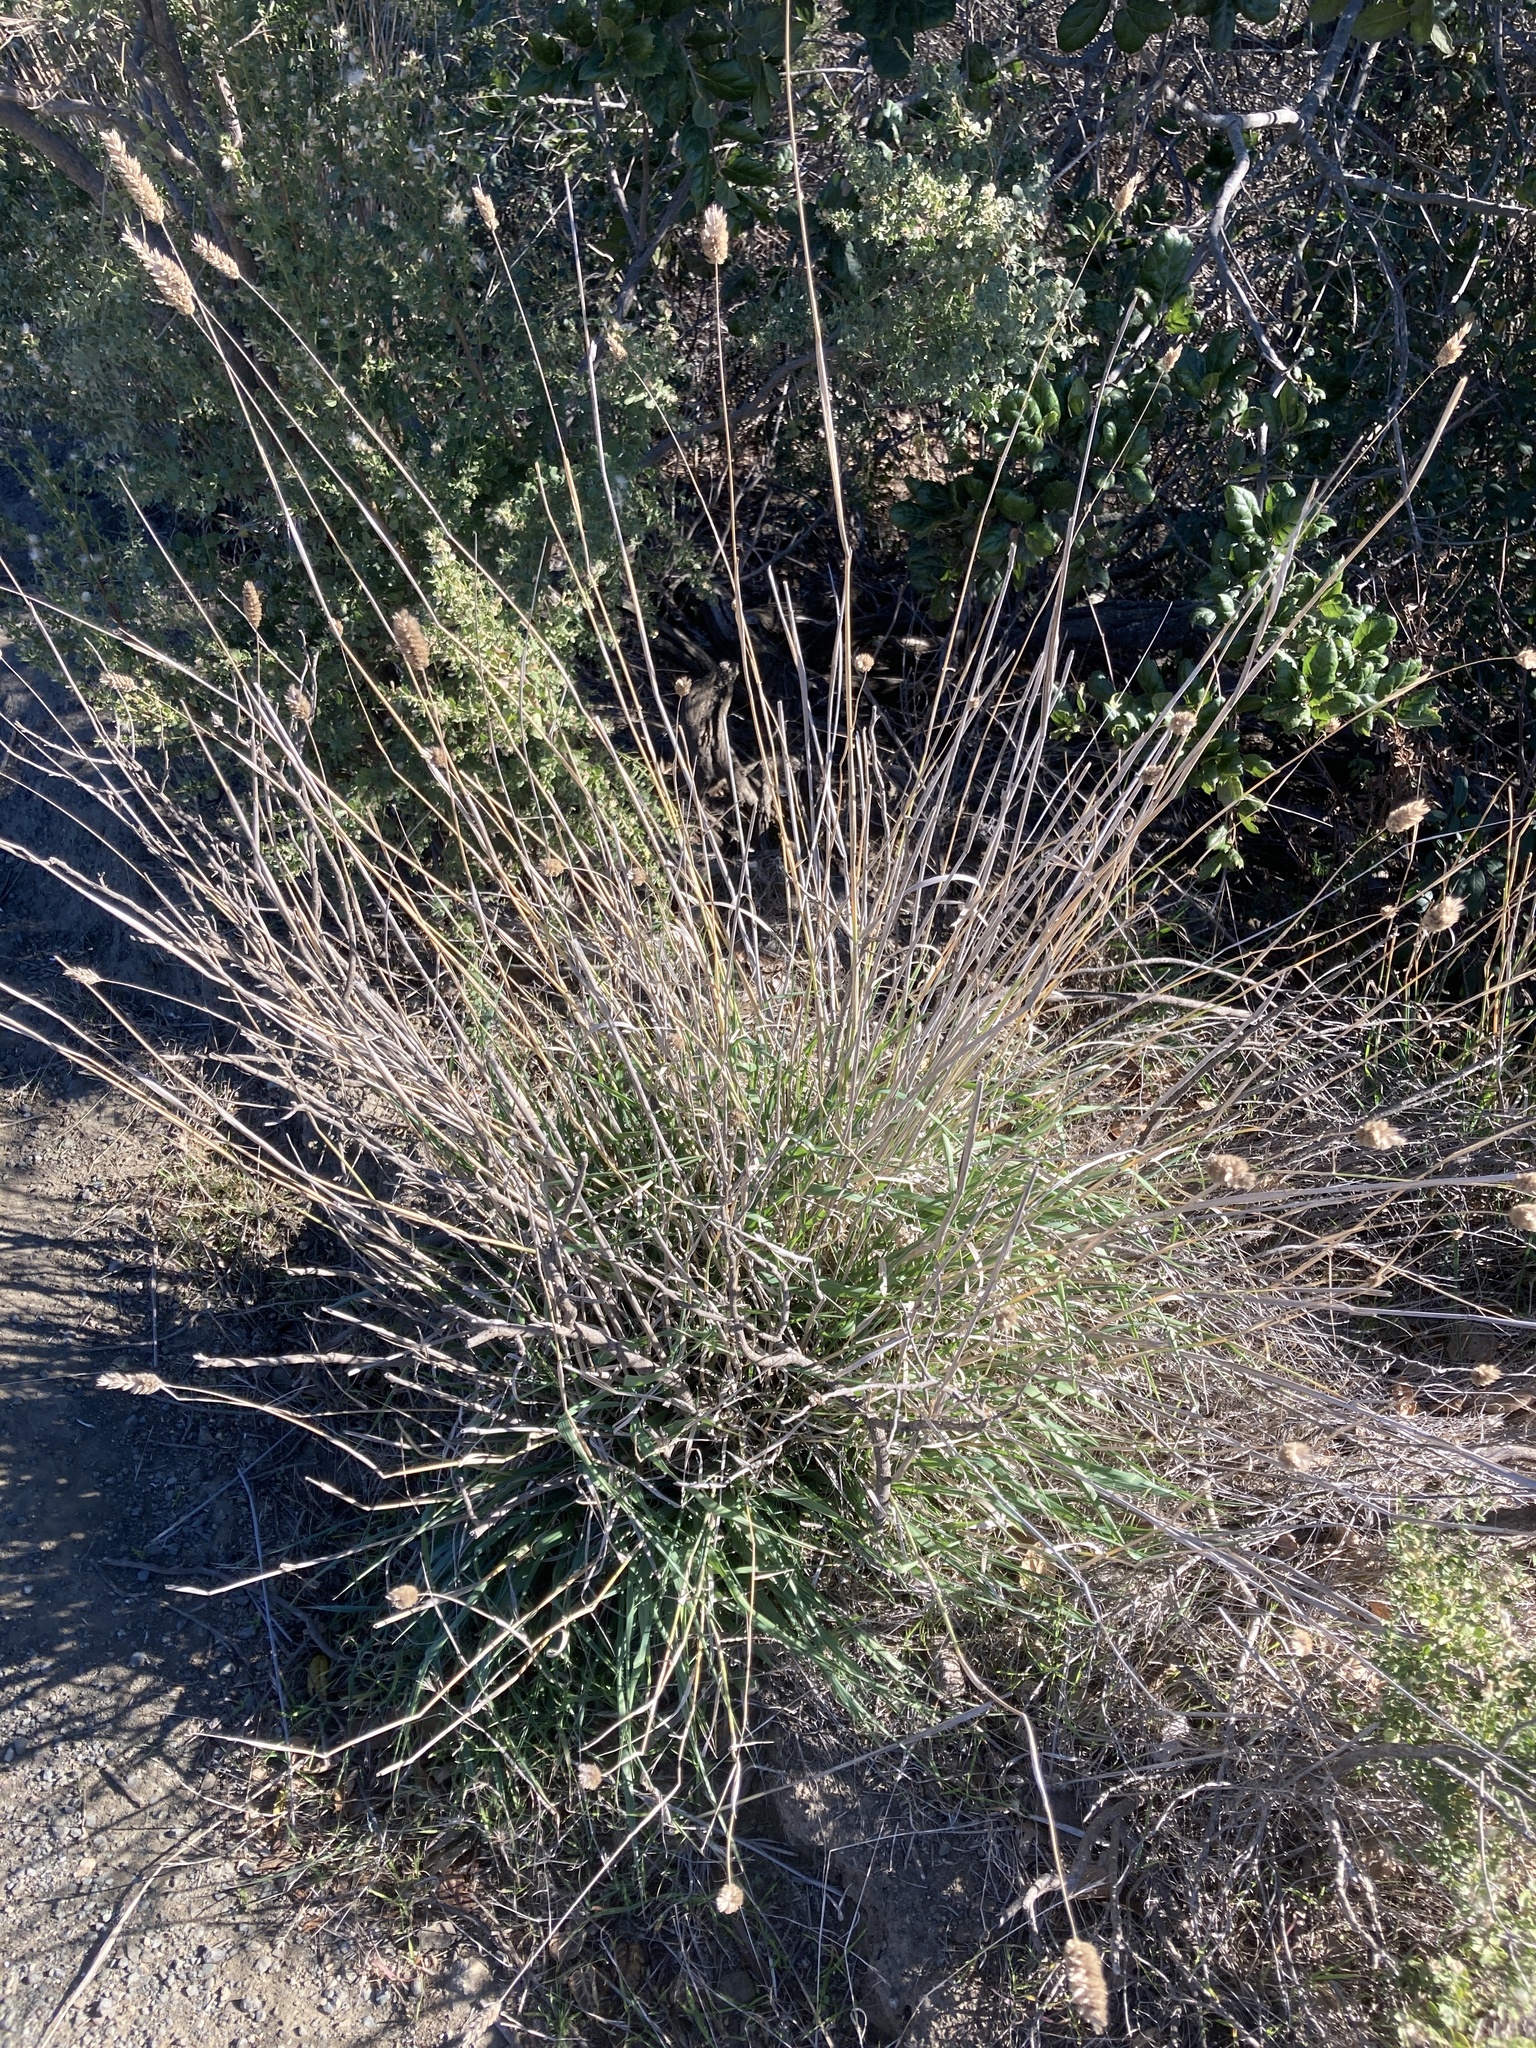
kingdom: Plantae
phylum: Tracheophyta
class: Liliopsida
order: Poales
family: Poaceae
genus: Phalaris
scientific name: Phalaris aquatica
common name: Bulbous canary-grass
